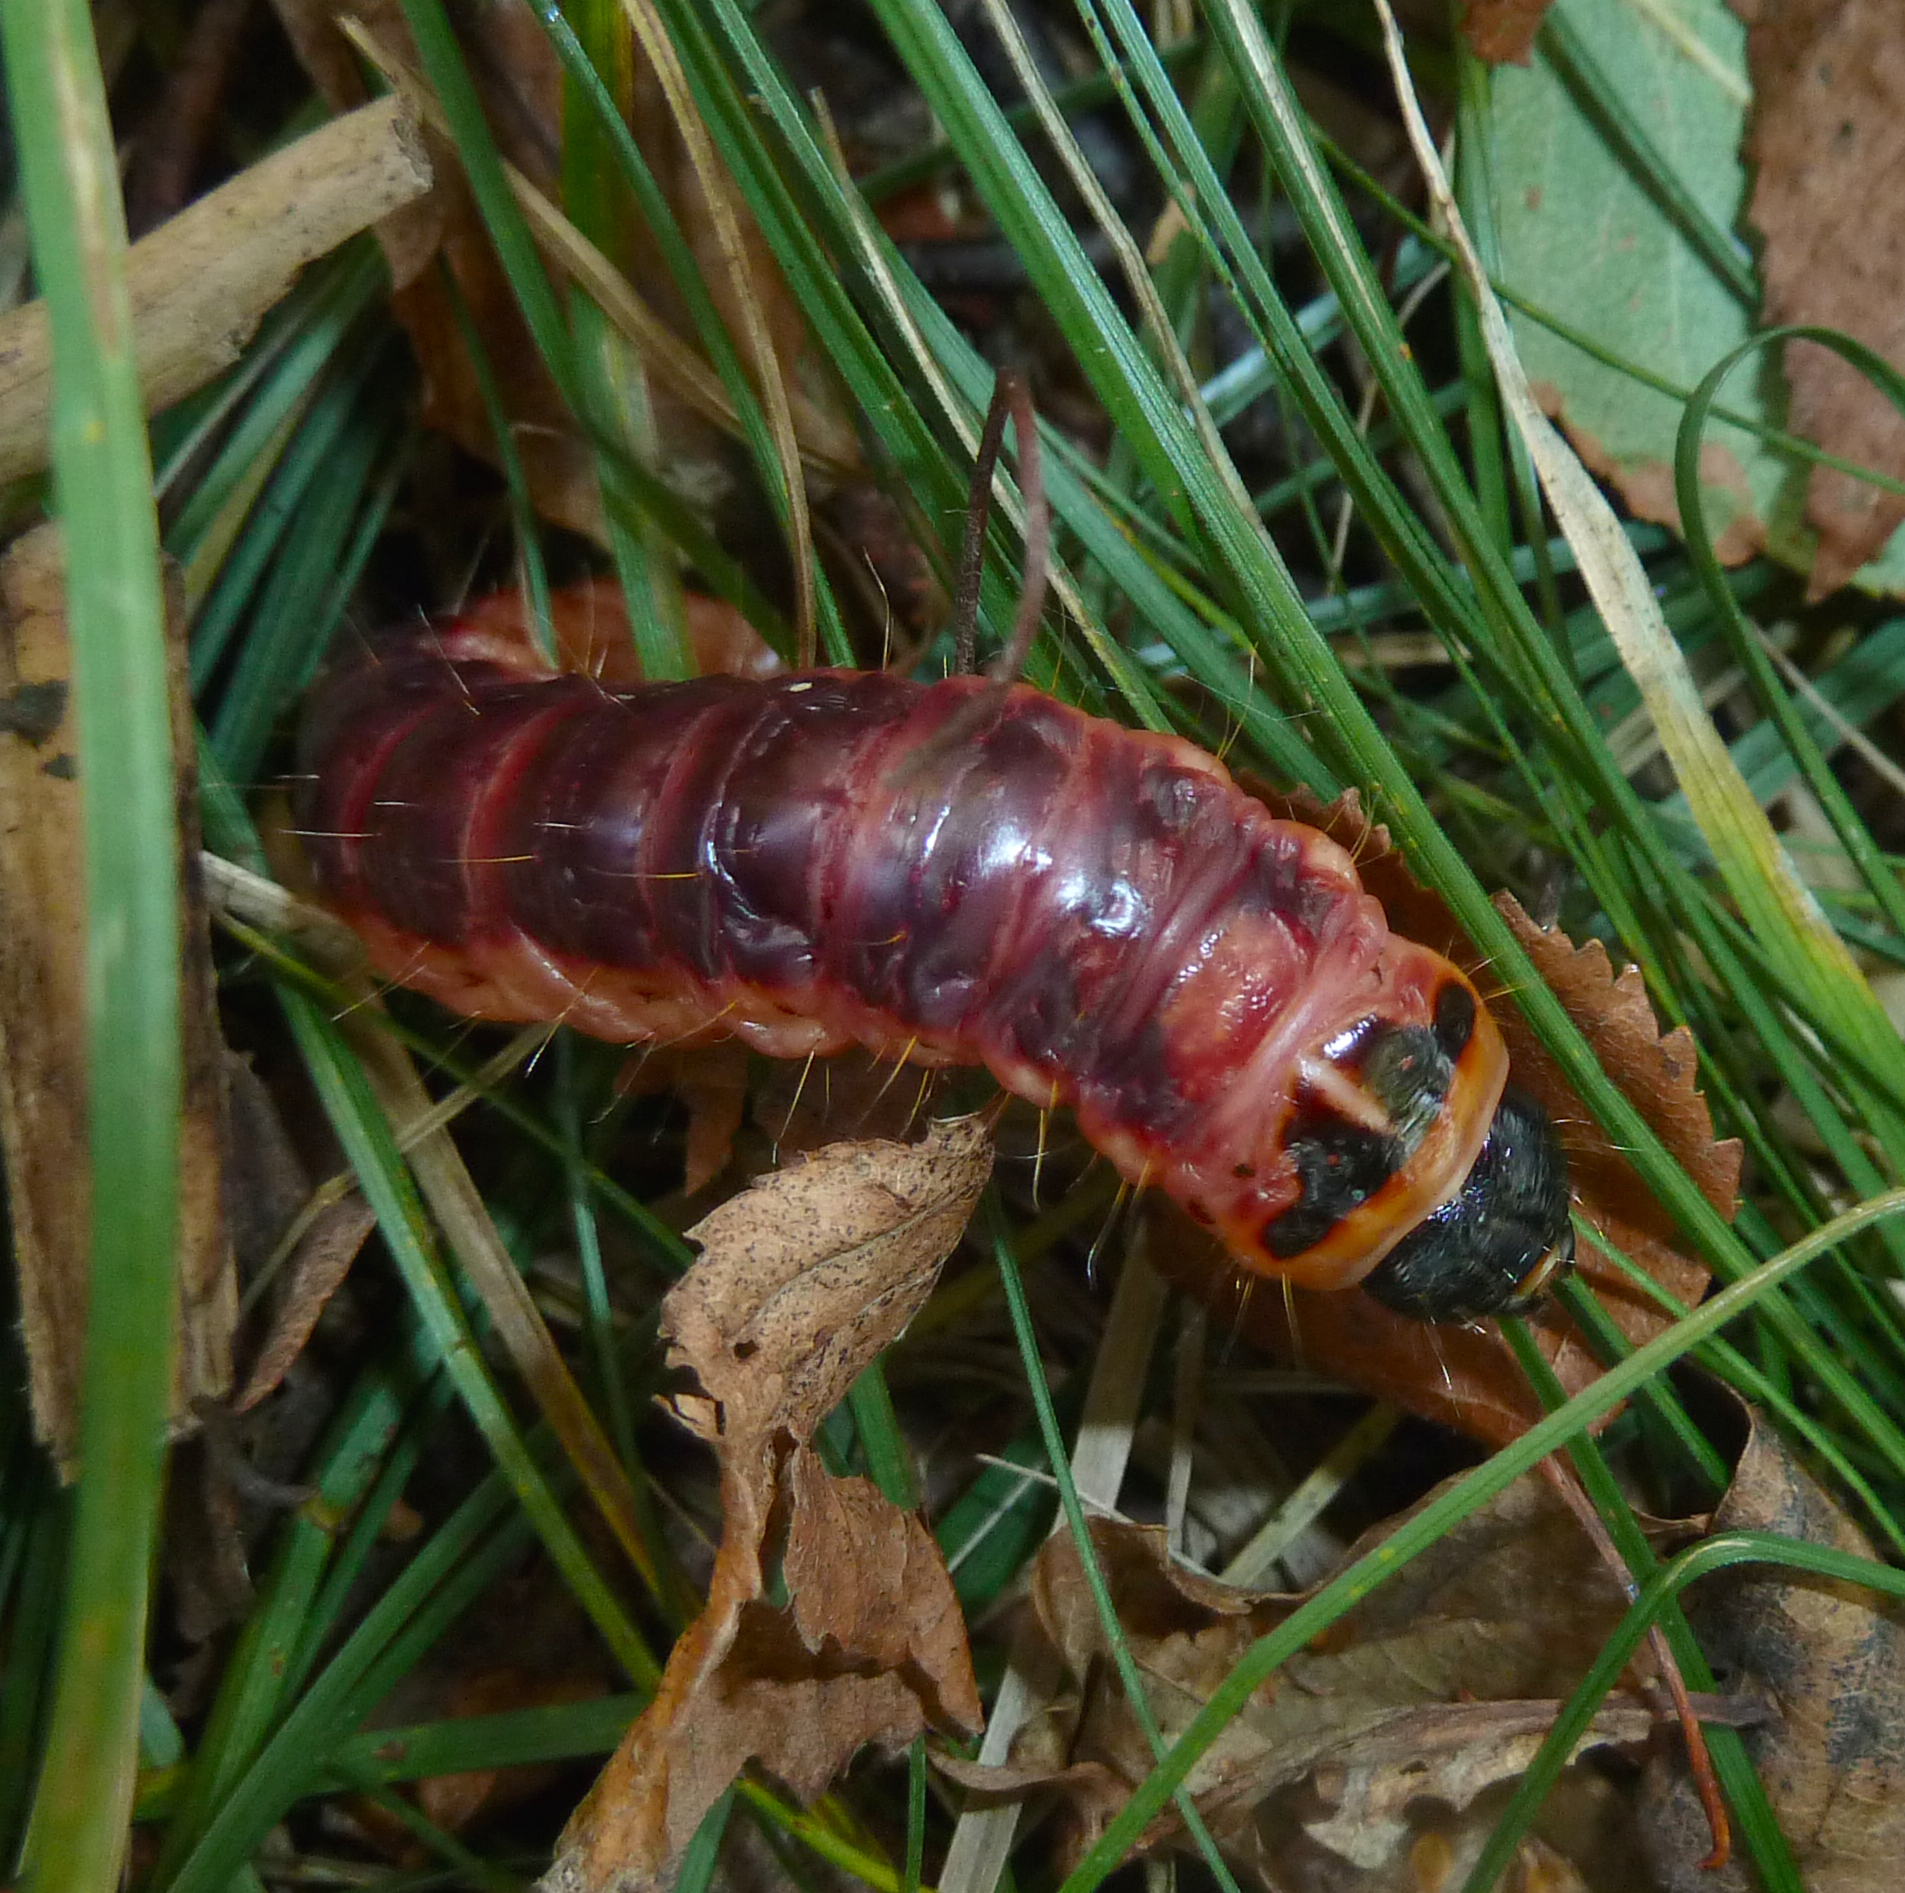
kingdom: Animalia
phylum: Arthropoda
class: Insecta
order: Lepidoptera
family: Cossidae
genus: Cossus
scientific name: Cossus cossus
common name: Goat moth
